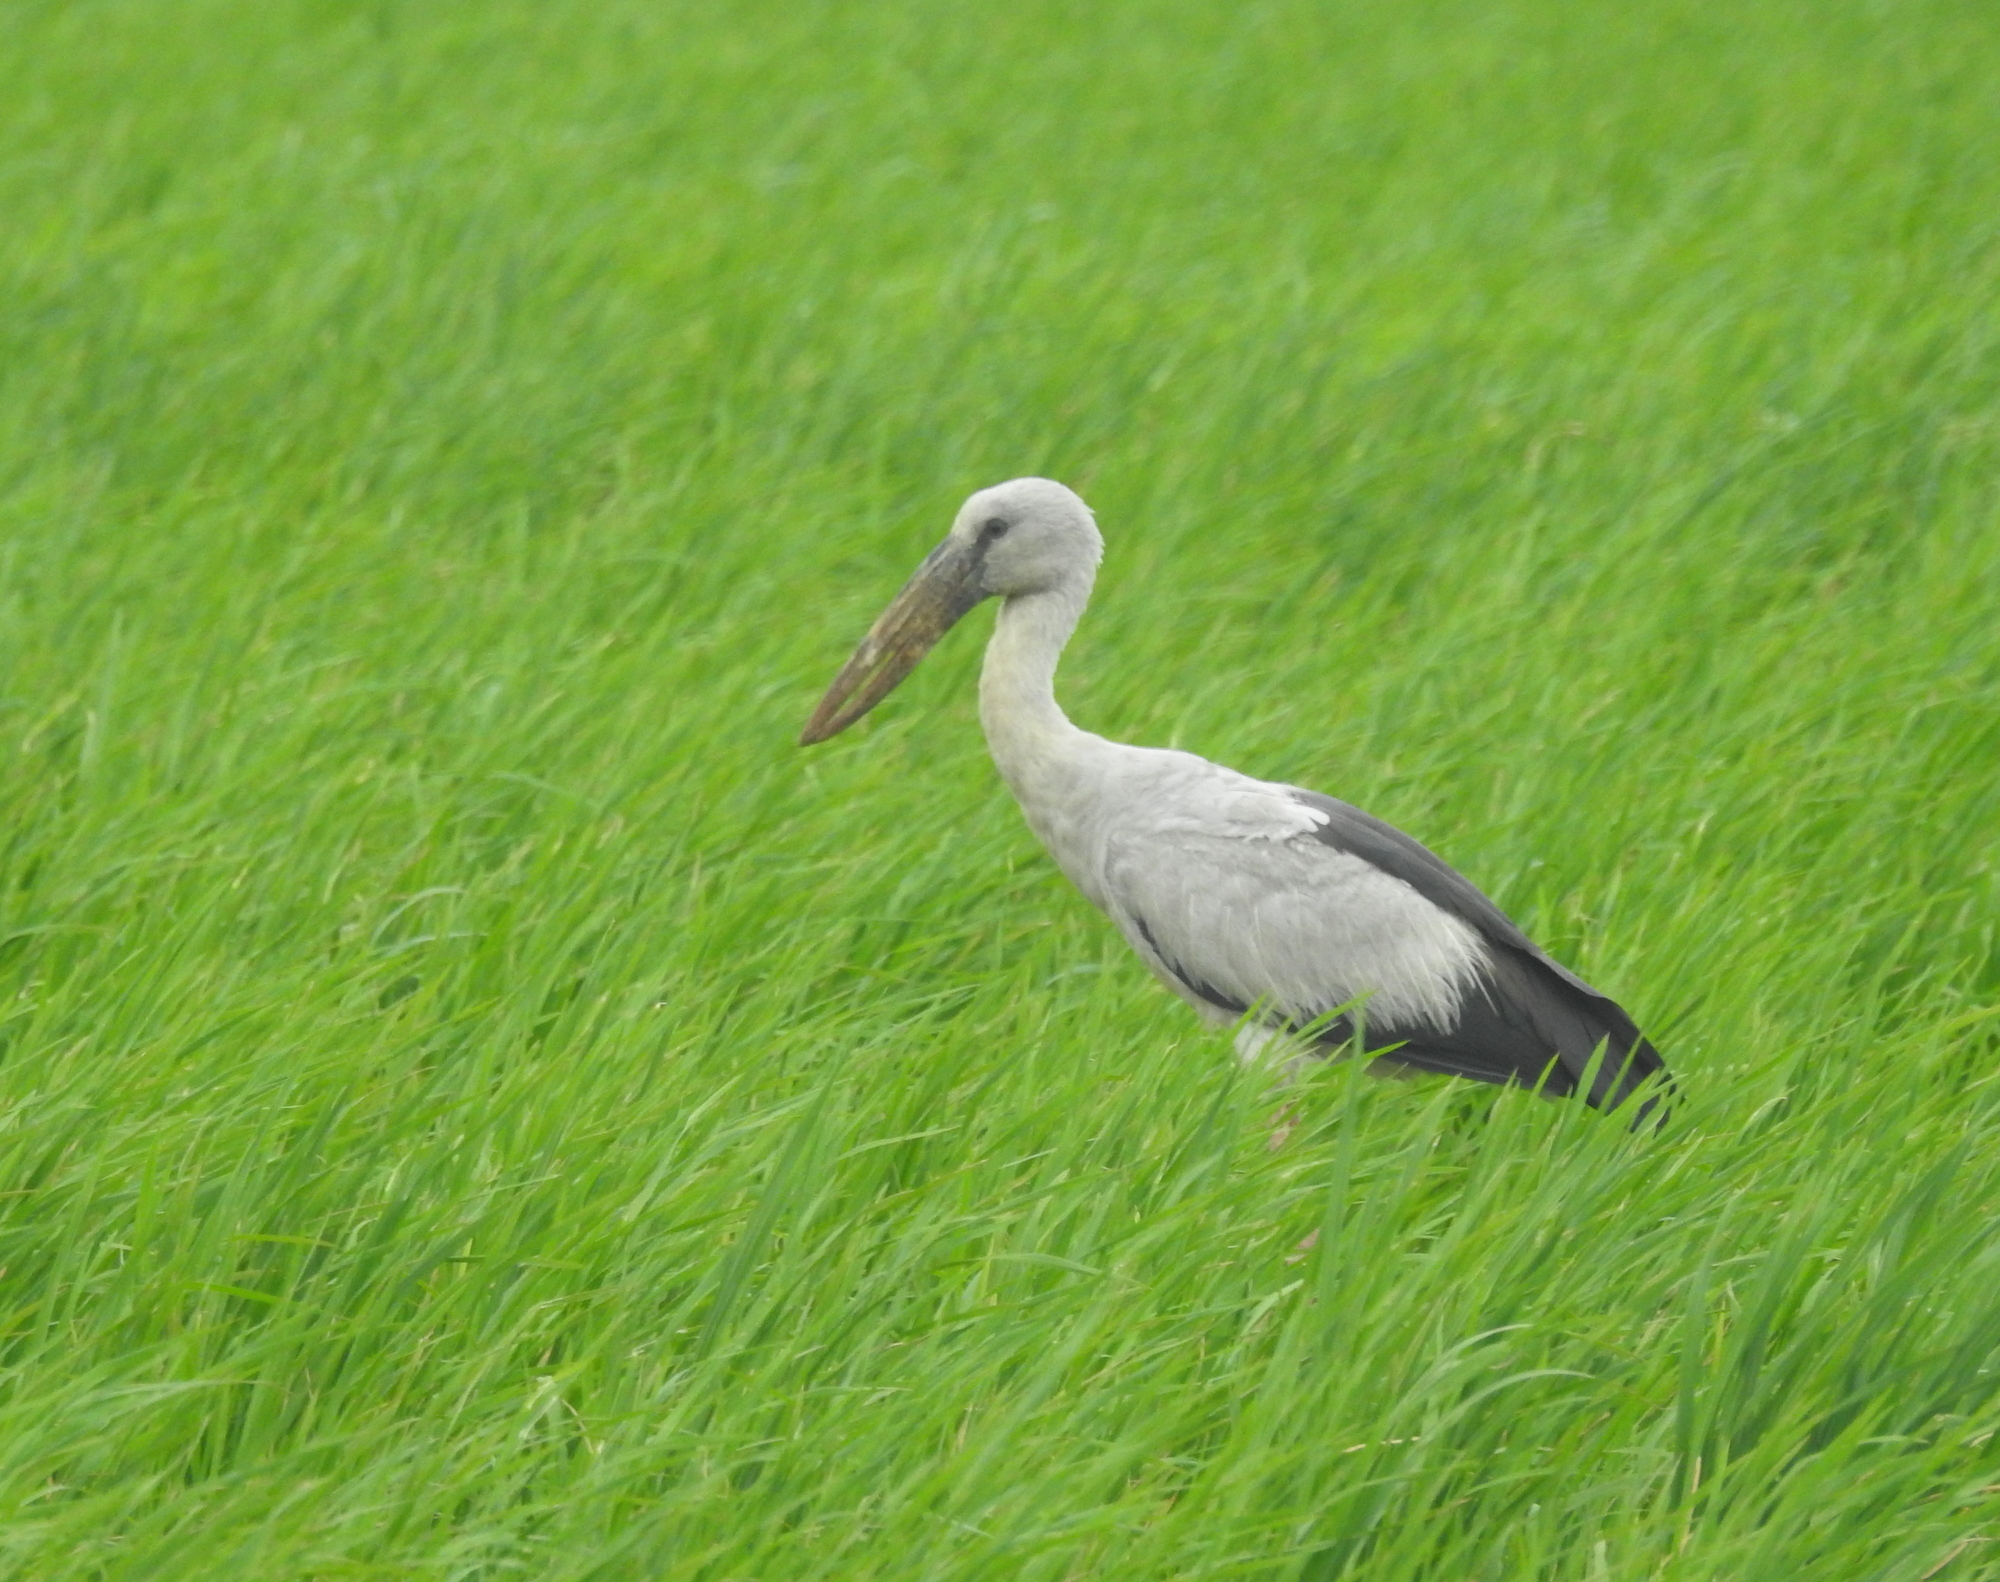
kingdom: Animalia
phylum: Chordata
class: Aves
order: Ciconiiformes
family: Ciconiidae
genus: Anastomus
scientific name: Anastomus oscitans
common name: Asian openbill
